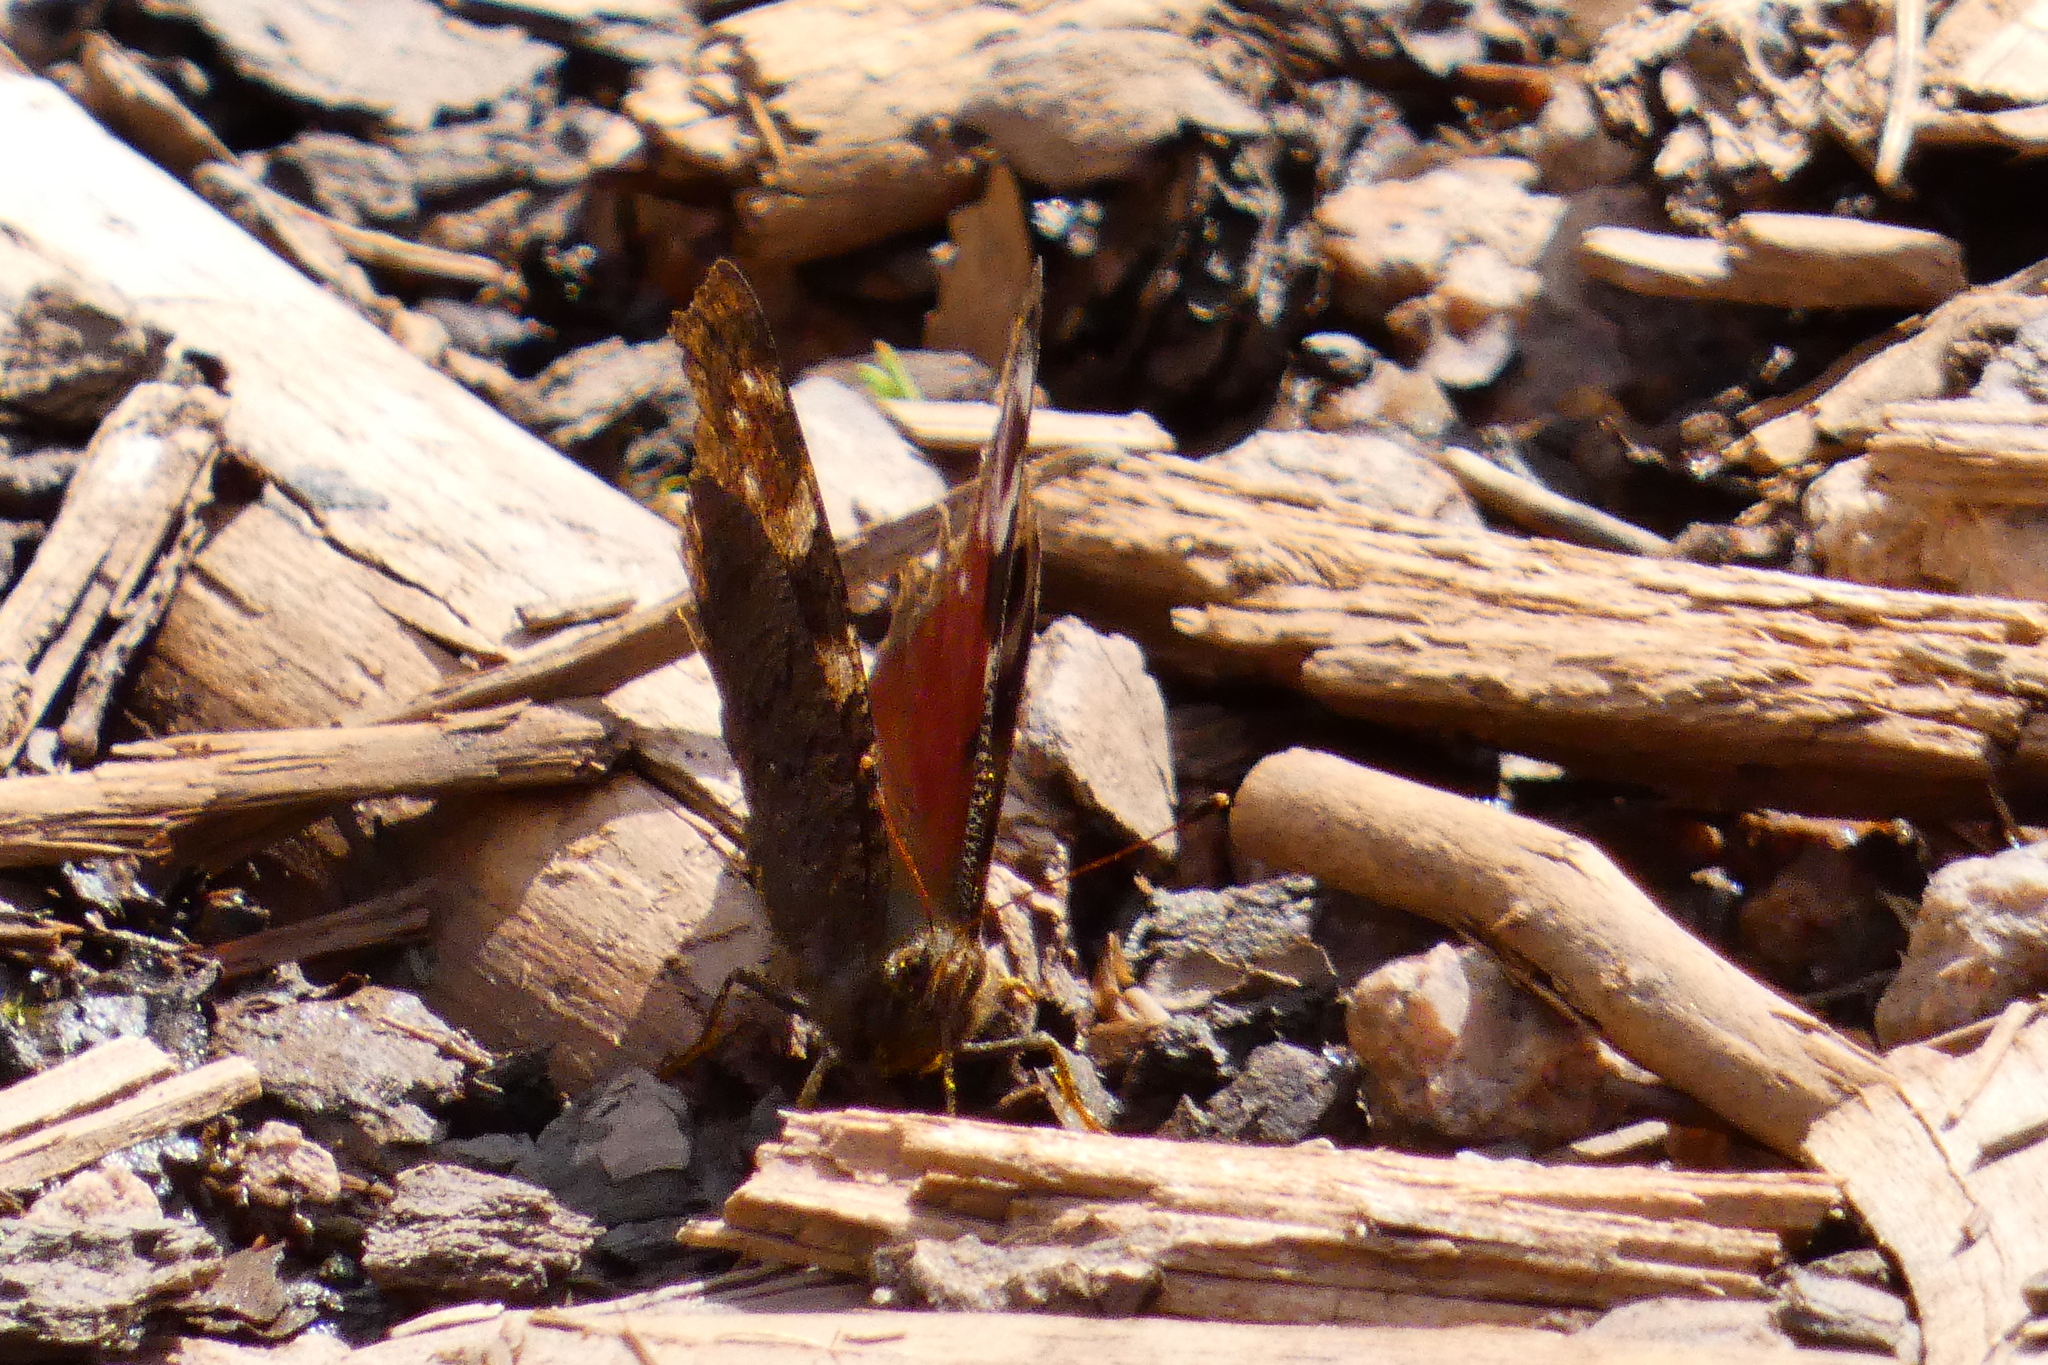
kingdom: Animalia
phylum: Arthropoda
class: Insecta
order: Lepidoptera
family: Nymphalidae
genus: Aglais
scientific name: Aglais io
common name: Peacock
